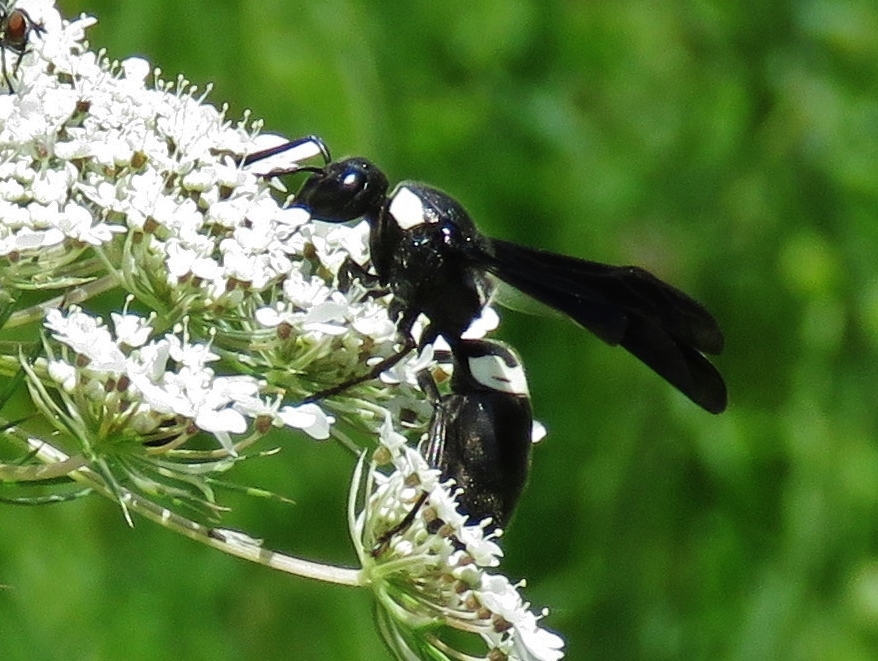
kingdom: Animalia
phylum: Arthropoda
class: Insecta
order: Hymenoptera
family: Eumenidae
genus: Monobia
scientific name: Monobia quadridens
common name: Four-toothed mason wasp
